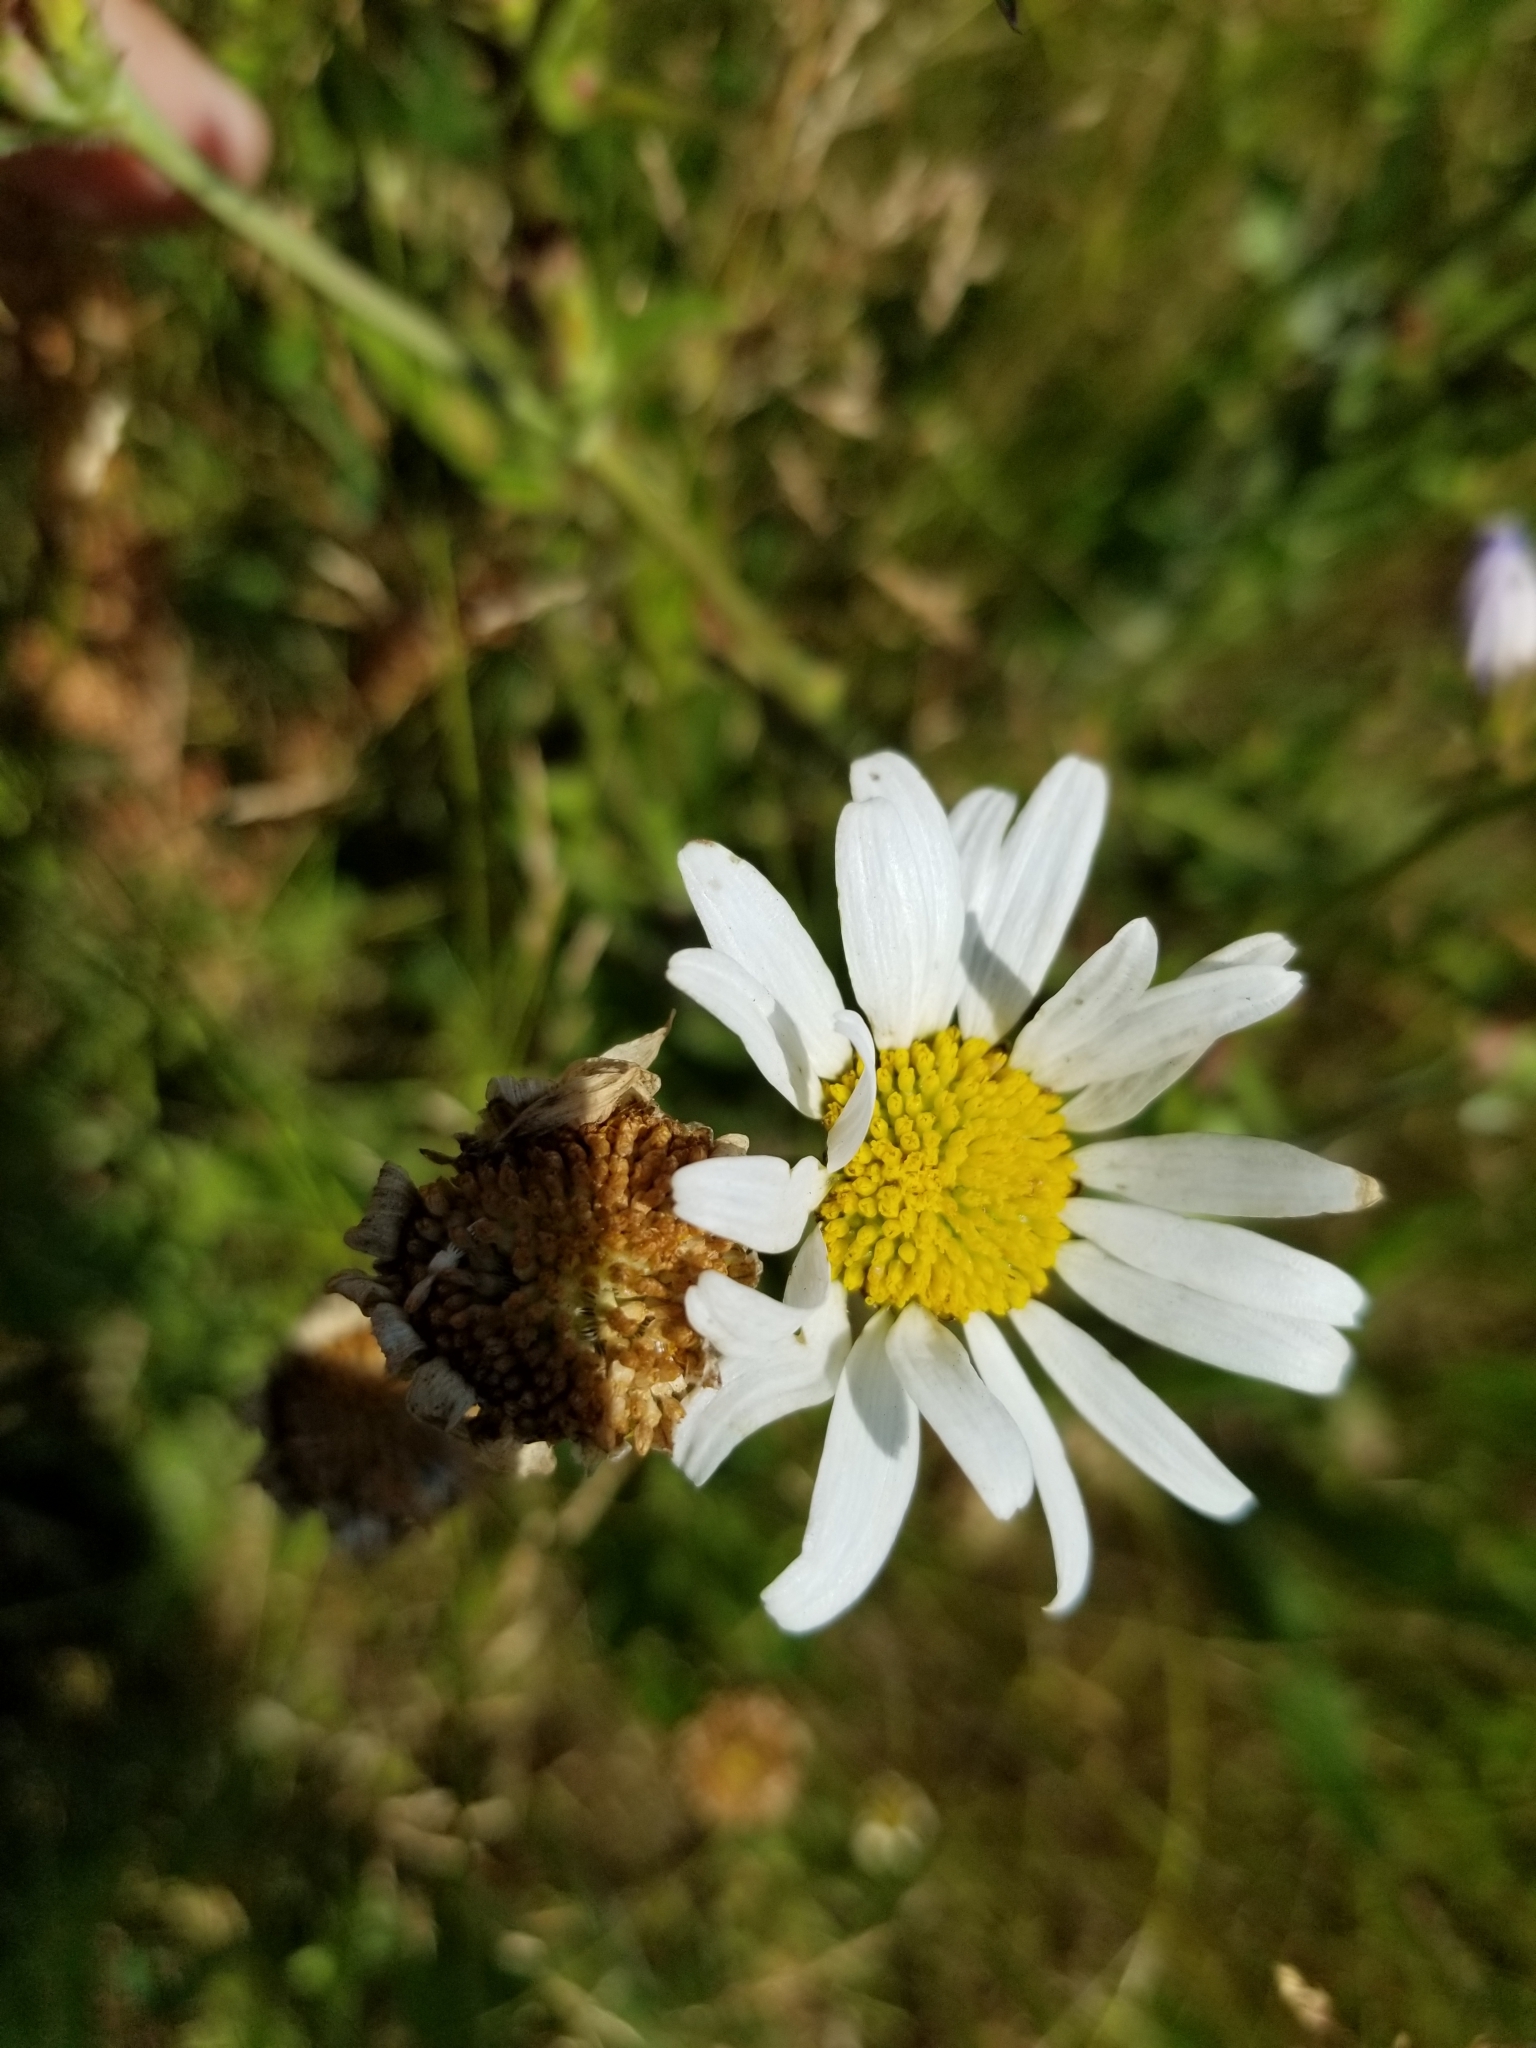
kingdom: Plantae
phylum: Tracheophyta
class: Magnoliopsida
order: Asterales
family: Asteraceae
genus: Leucanthemum
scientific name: Leucanthemum vulgare
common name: Oxeye daisy
